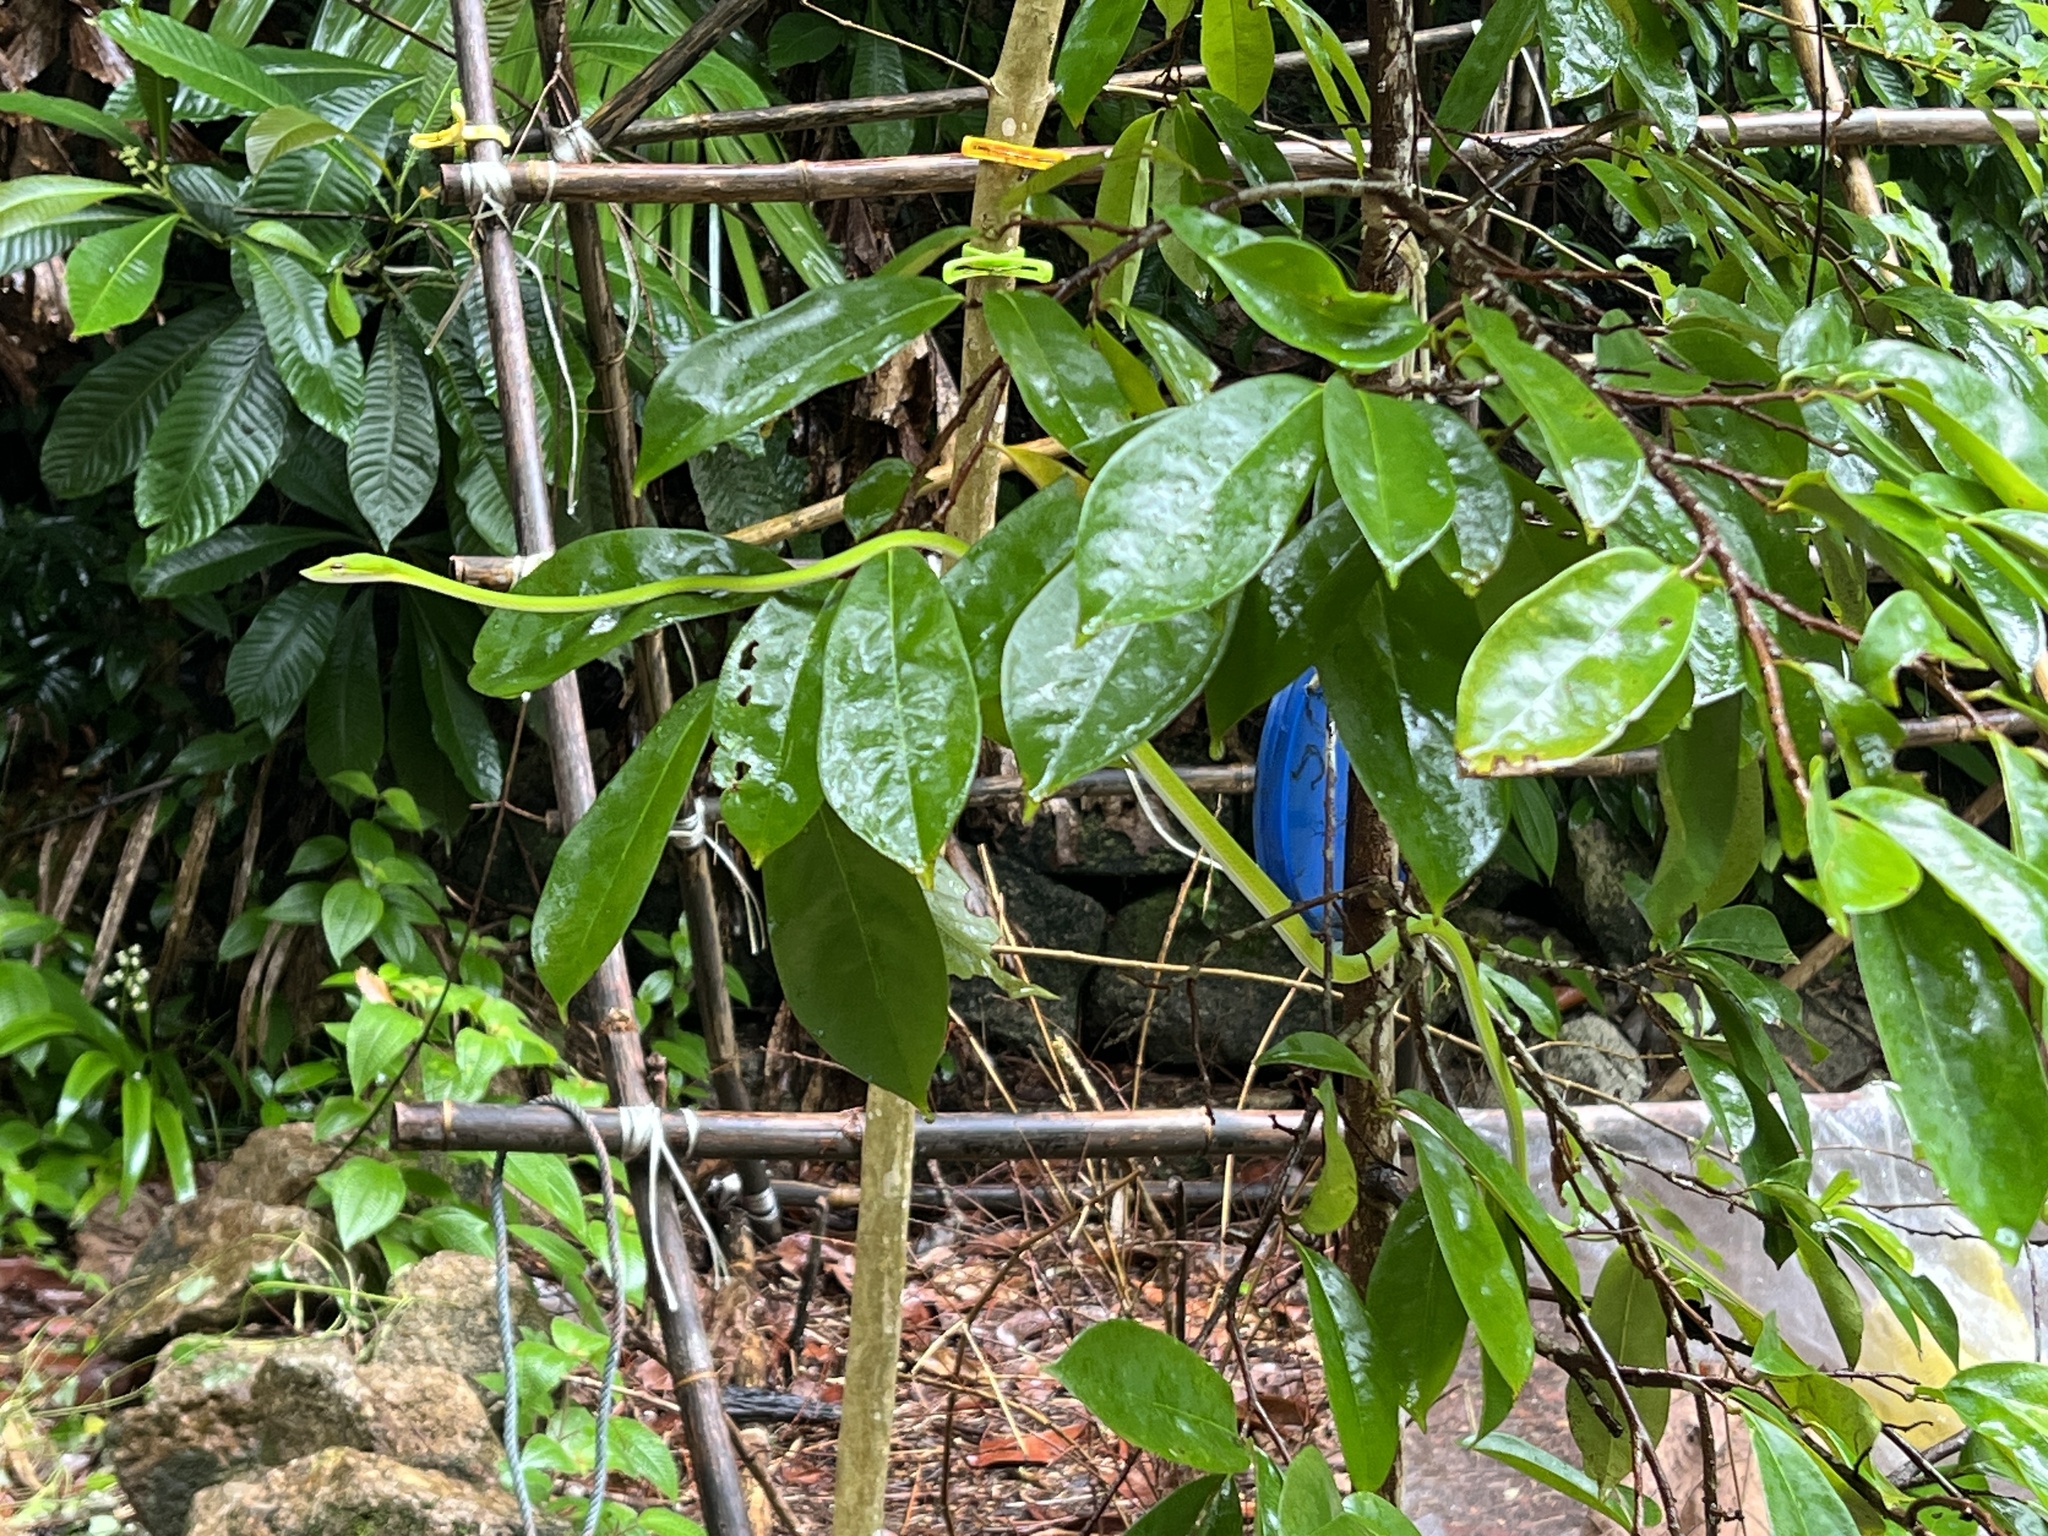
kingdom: Animalia
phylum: Chordata
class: Squamata
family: Colubridae
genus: Ahaetulla
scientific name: Ahaetulla mycterizans
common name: Malayan whip snake
